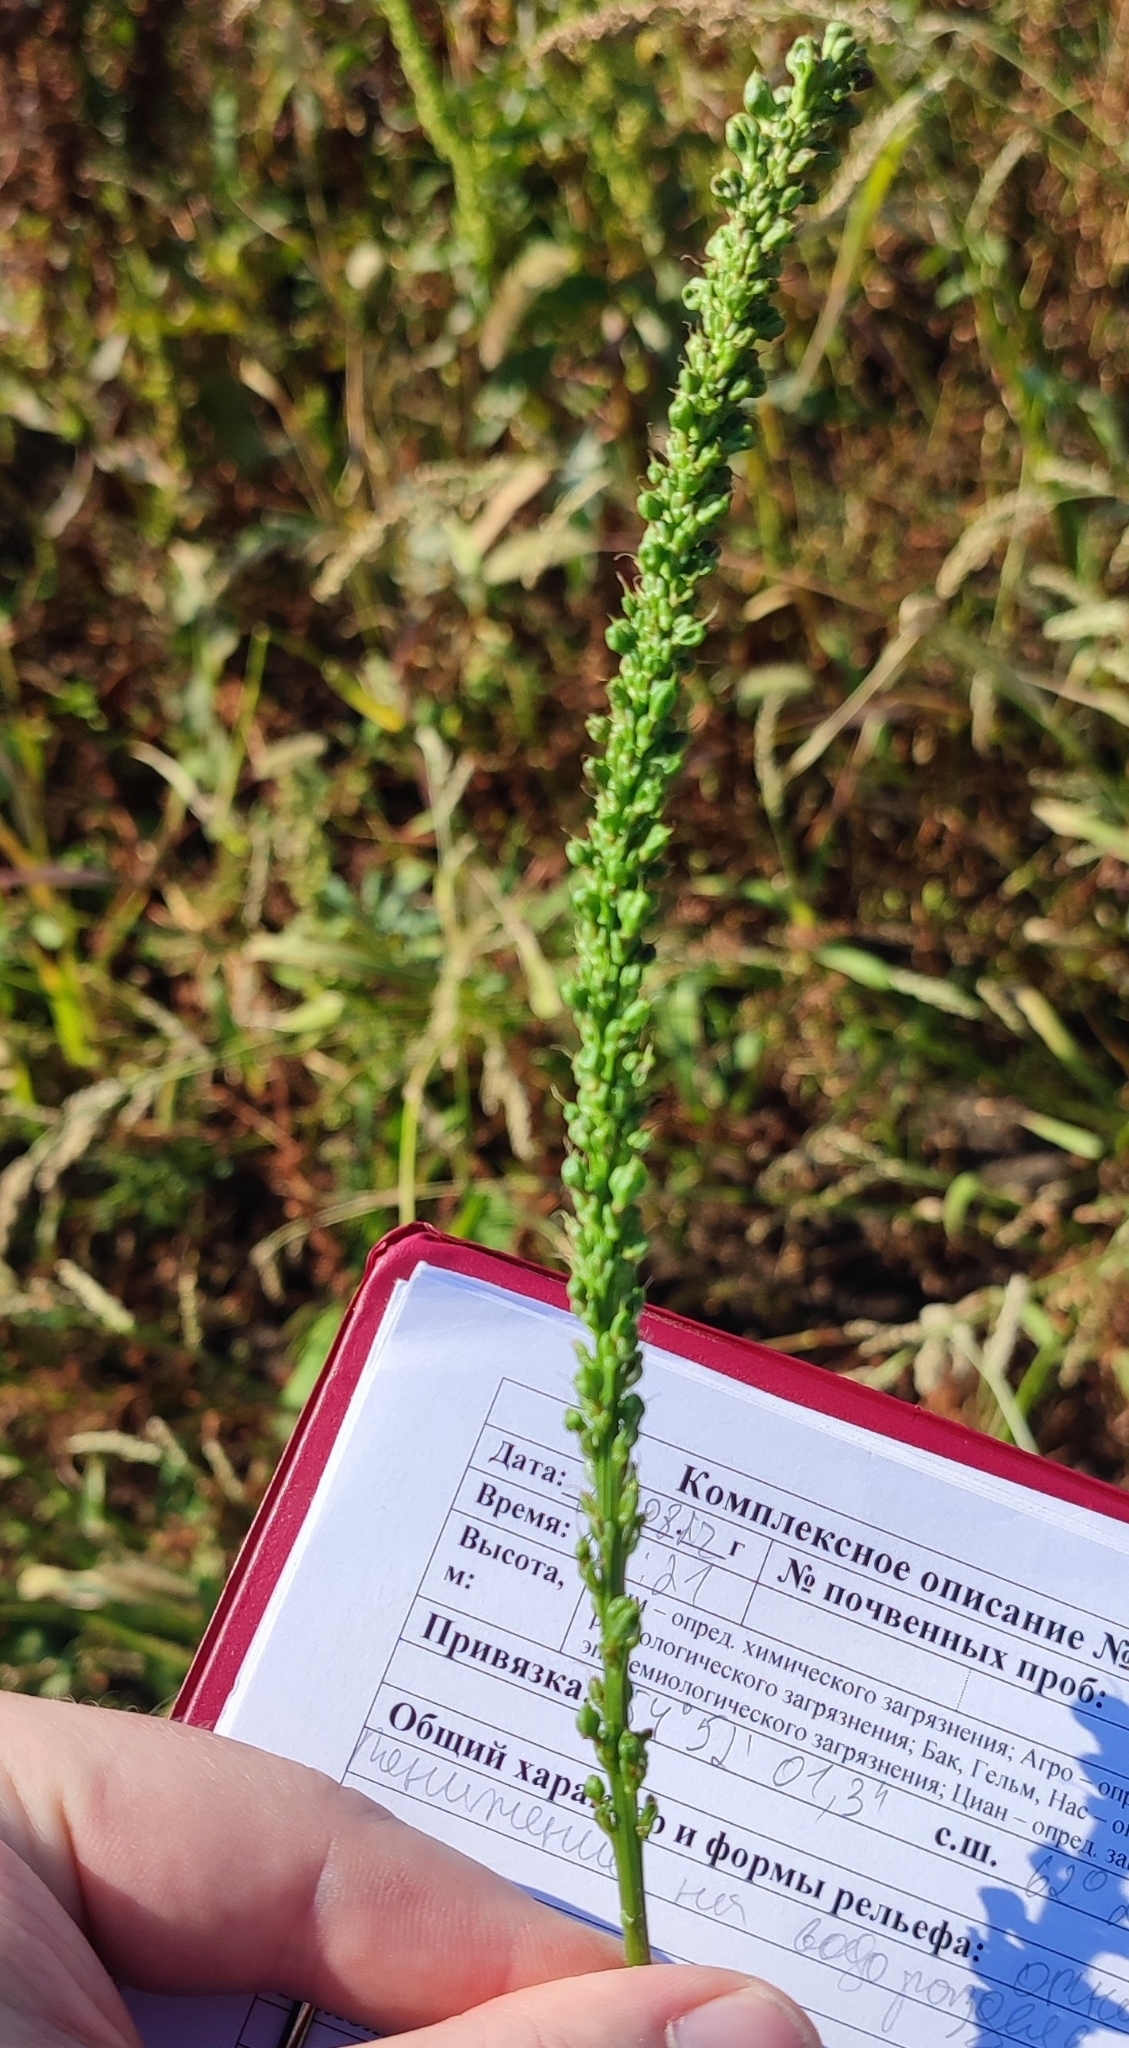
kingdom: Plantae
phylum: Tracheophyta
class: Liliopsida
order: Alismatales
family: Juncaginaceae
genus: Triglochin
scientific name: Triglochin maritima
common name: Sea arrowgrass
